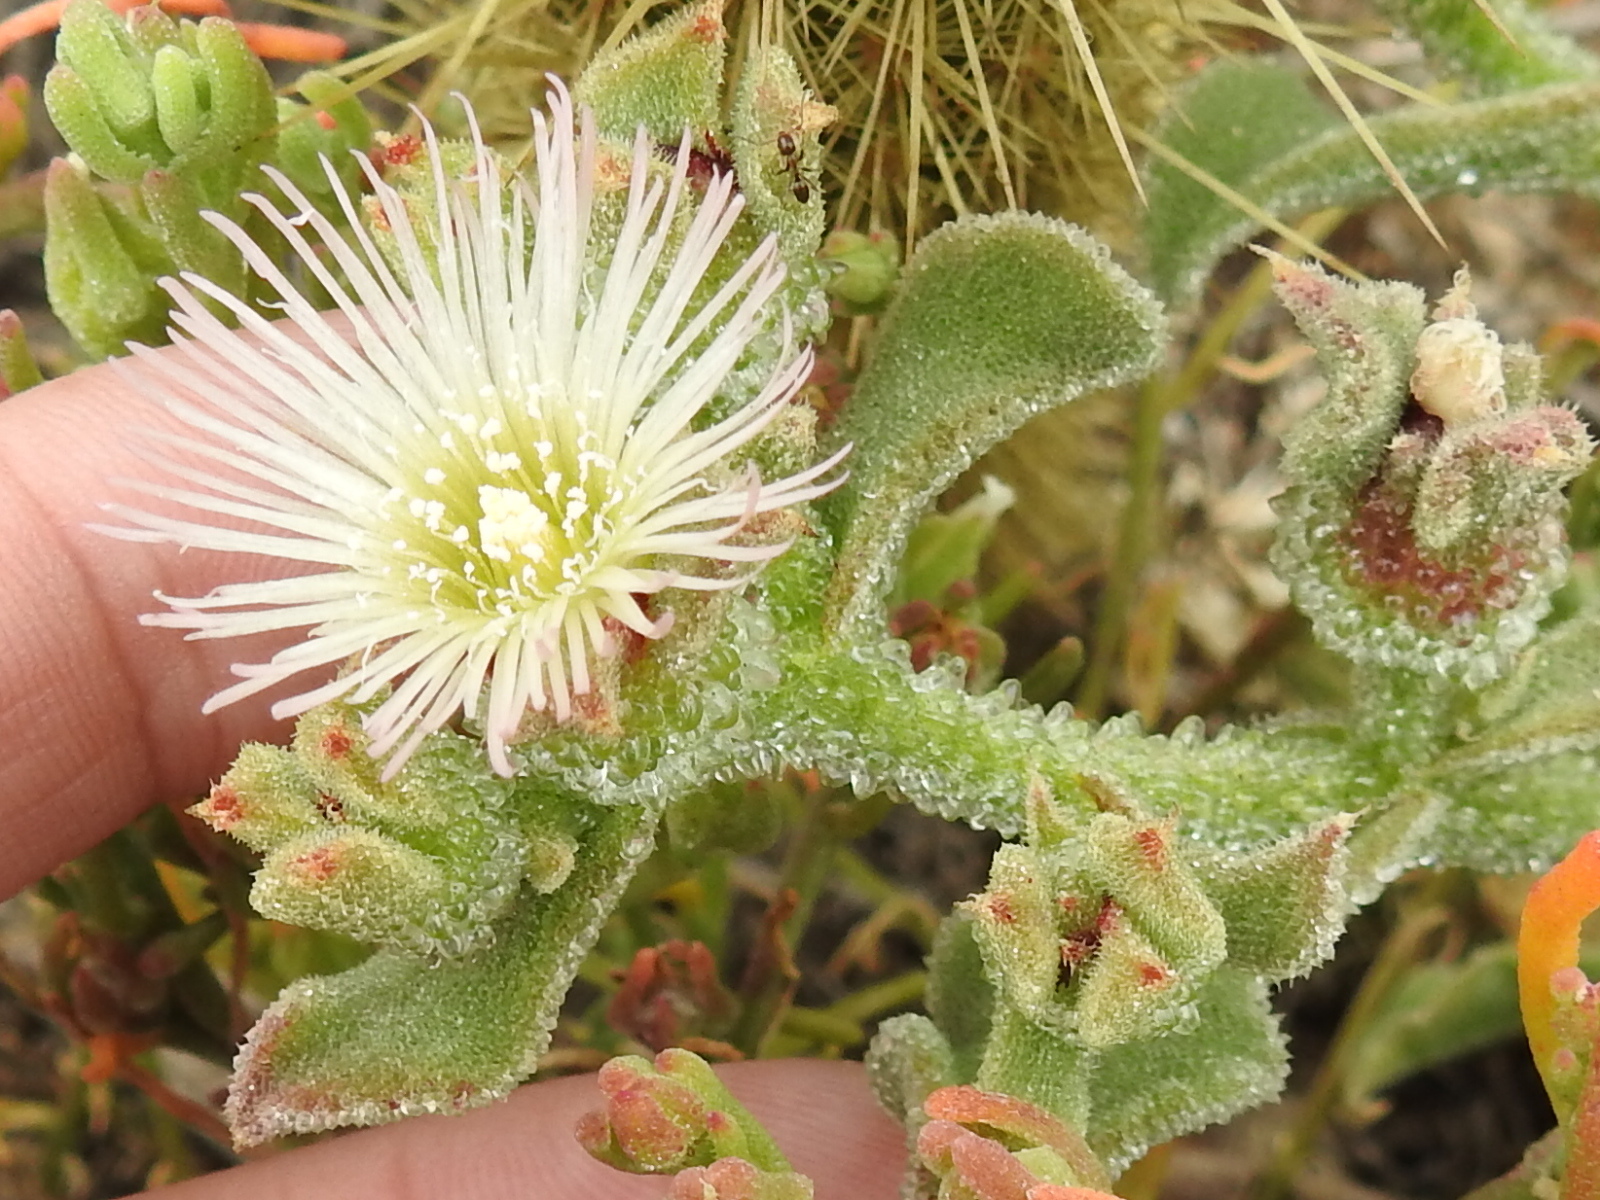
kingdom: Plantae
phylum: Tracheophyta
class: Magnoliopsida
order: Caryophyllales
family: Aizoaceae
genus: Mesembryanthemum
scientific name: Mesembryanthemum crystallinum
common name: Common iceplant
